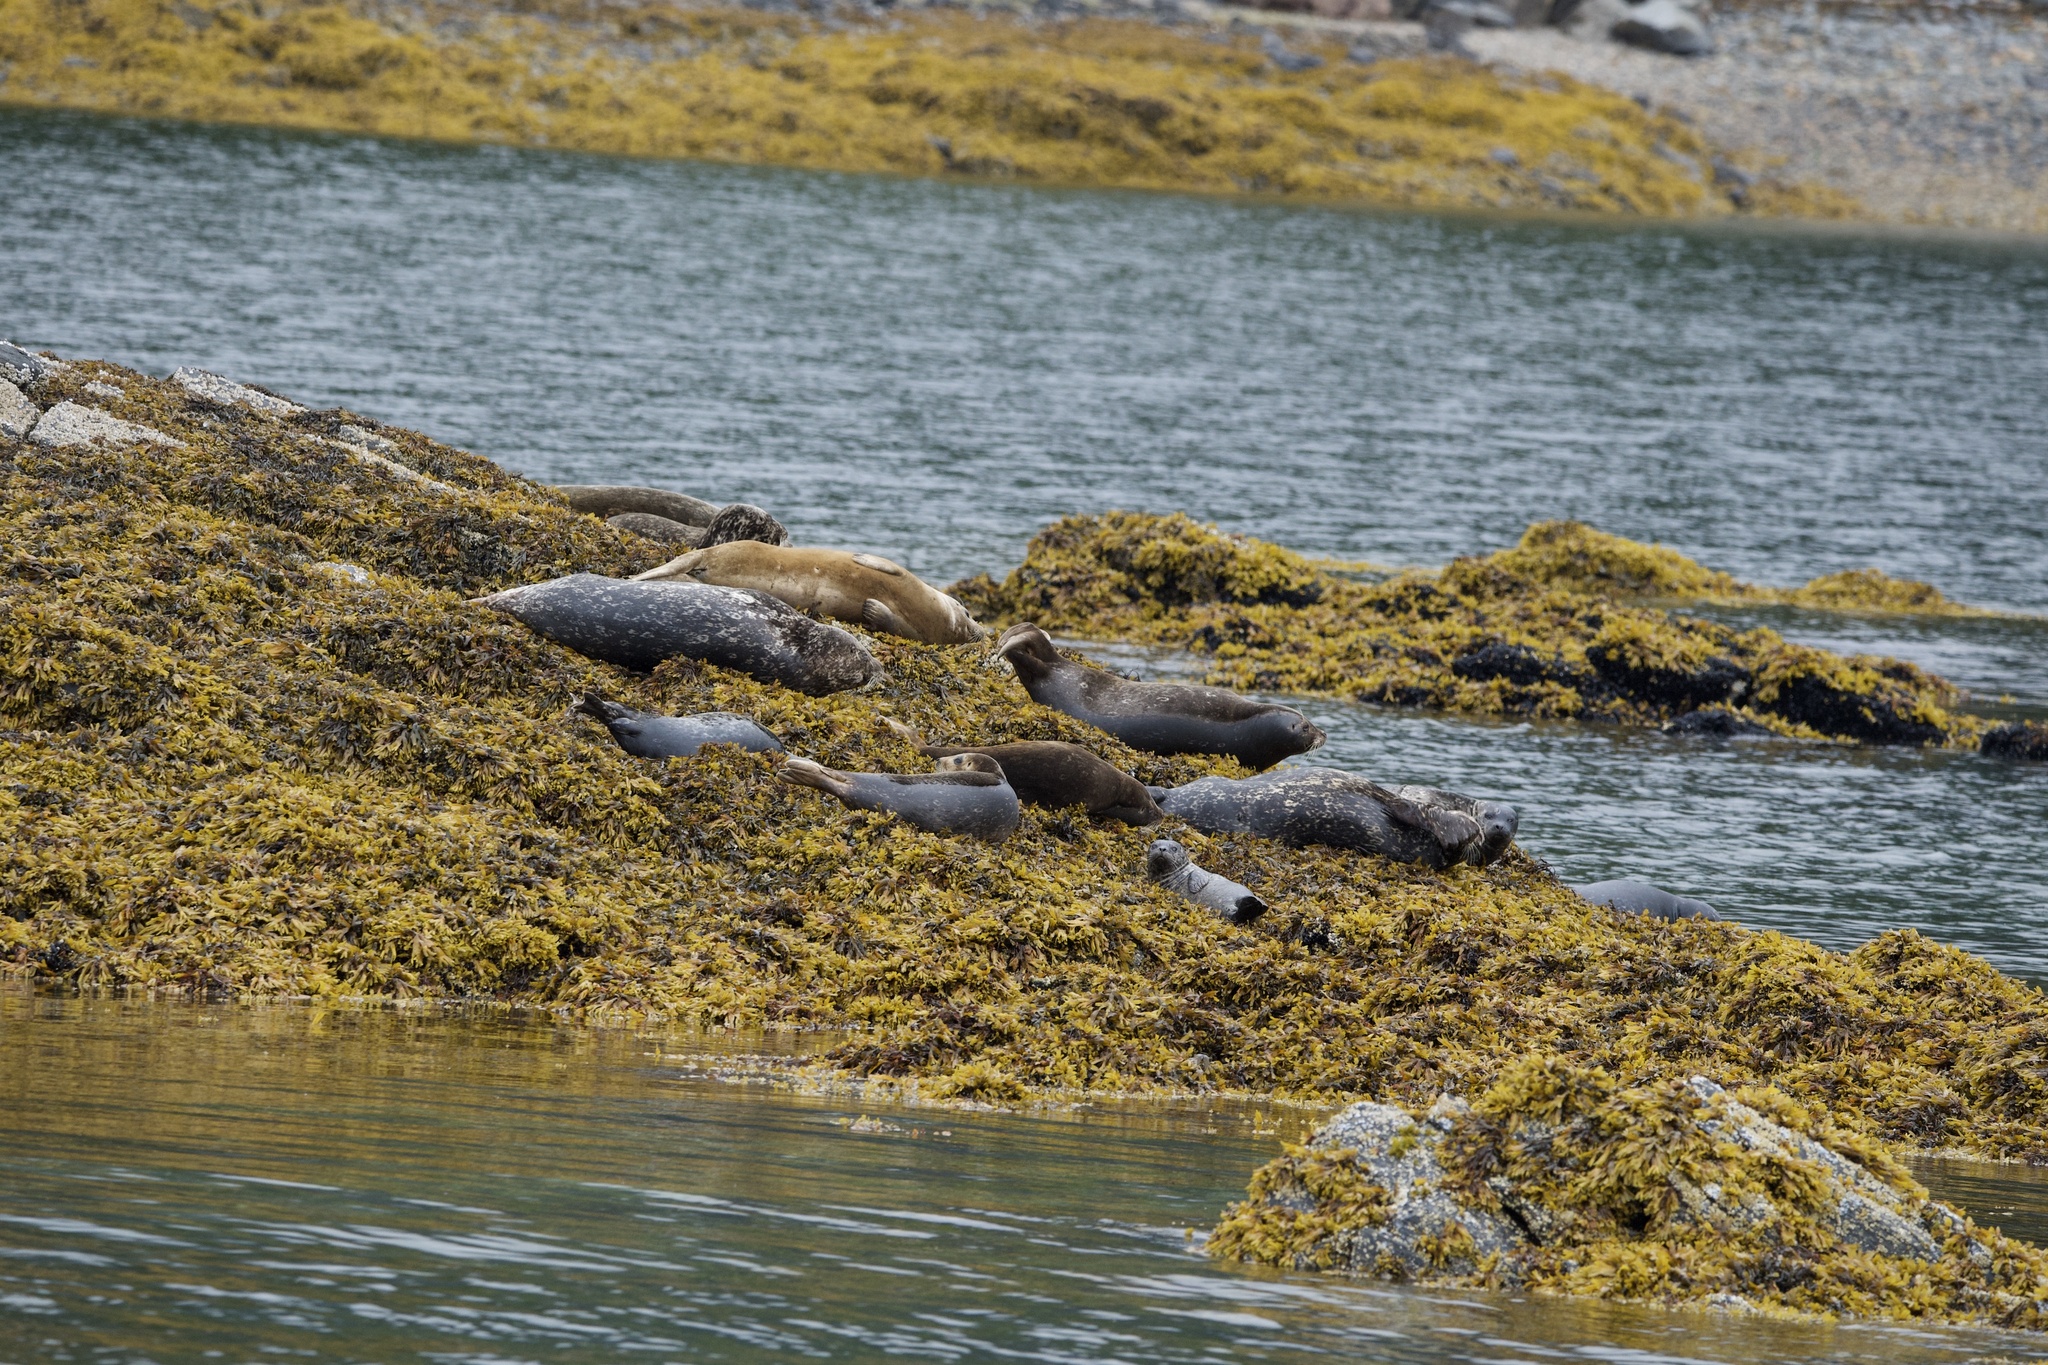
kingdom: Animalia
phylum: Chordata
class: Mammalia
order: Carnivora
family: Phocidae
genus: Phoca
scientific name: Phoca vitulina
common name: Harbor seal
